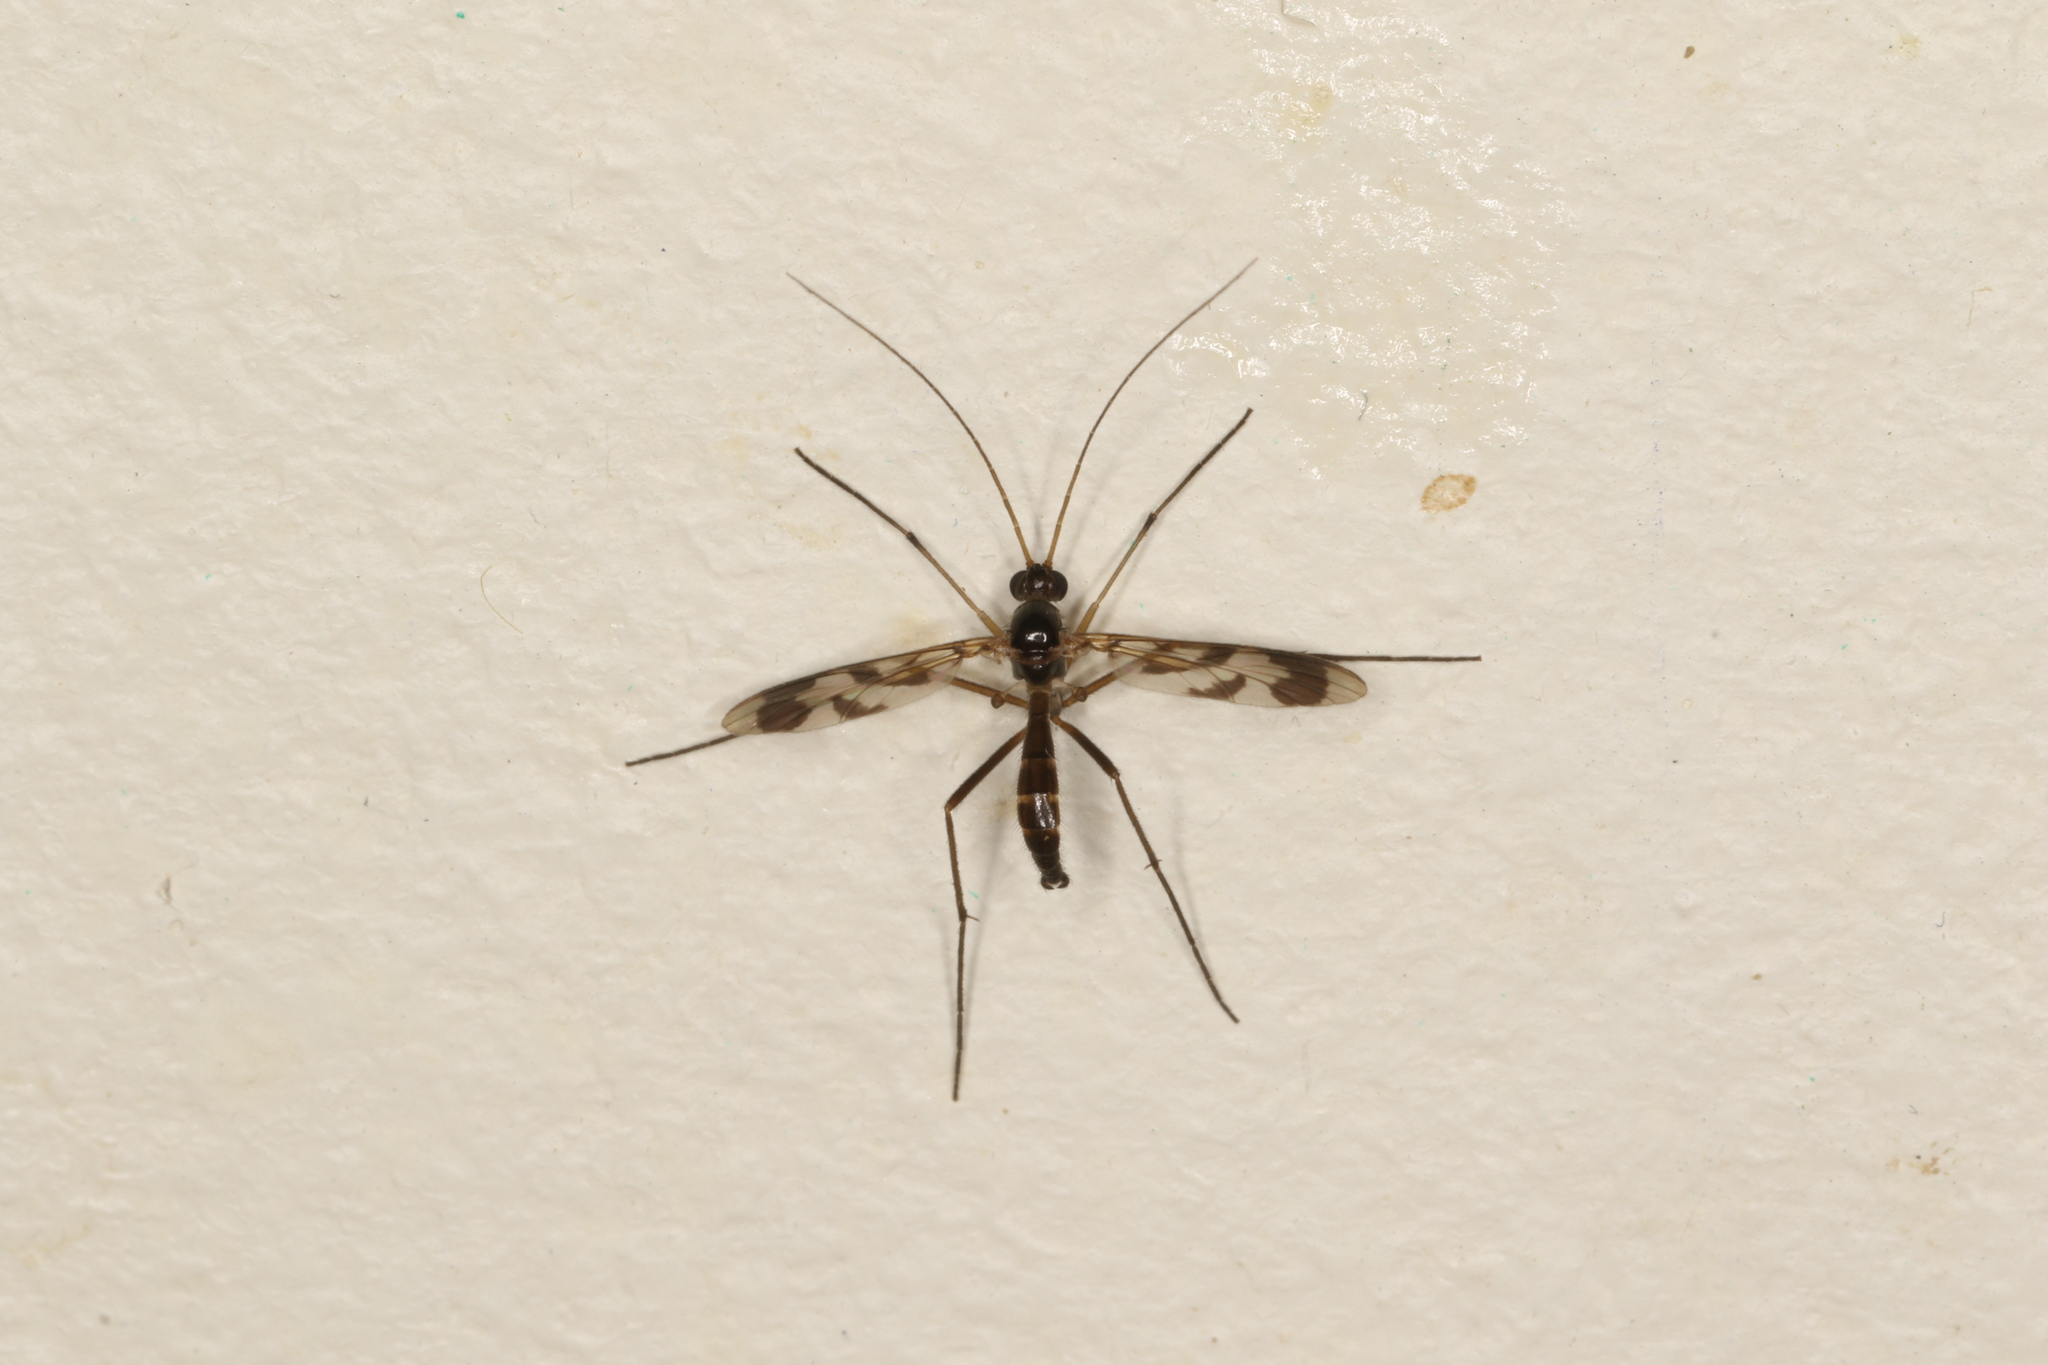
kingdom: Animalia
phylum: Arthropoda
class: Insecta
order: Diptera
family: Keroplatidae
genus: Macrocera
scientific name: Macrocera decorosa
